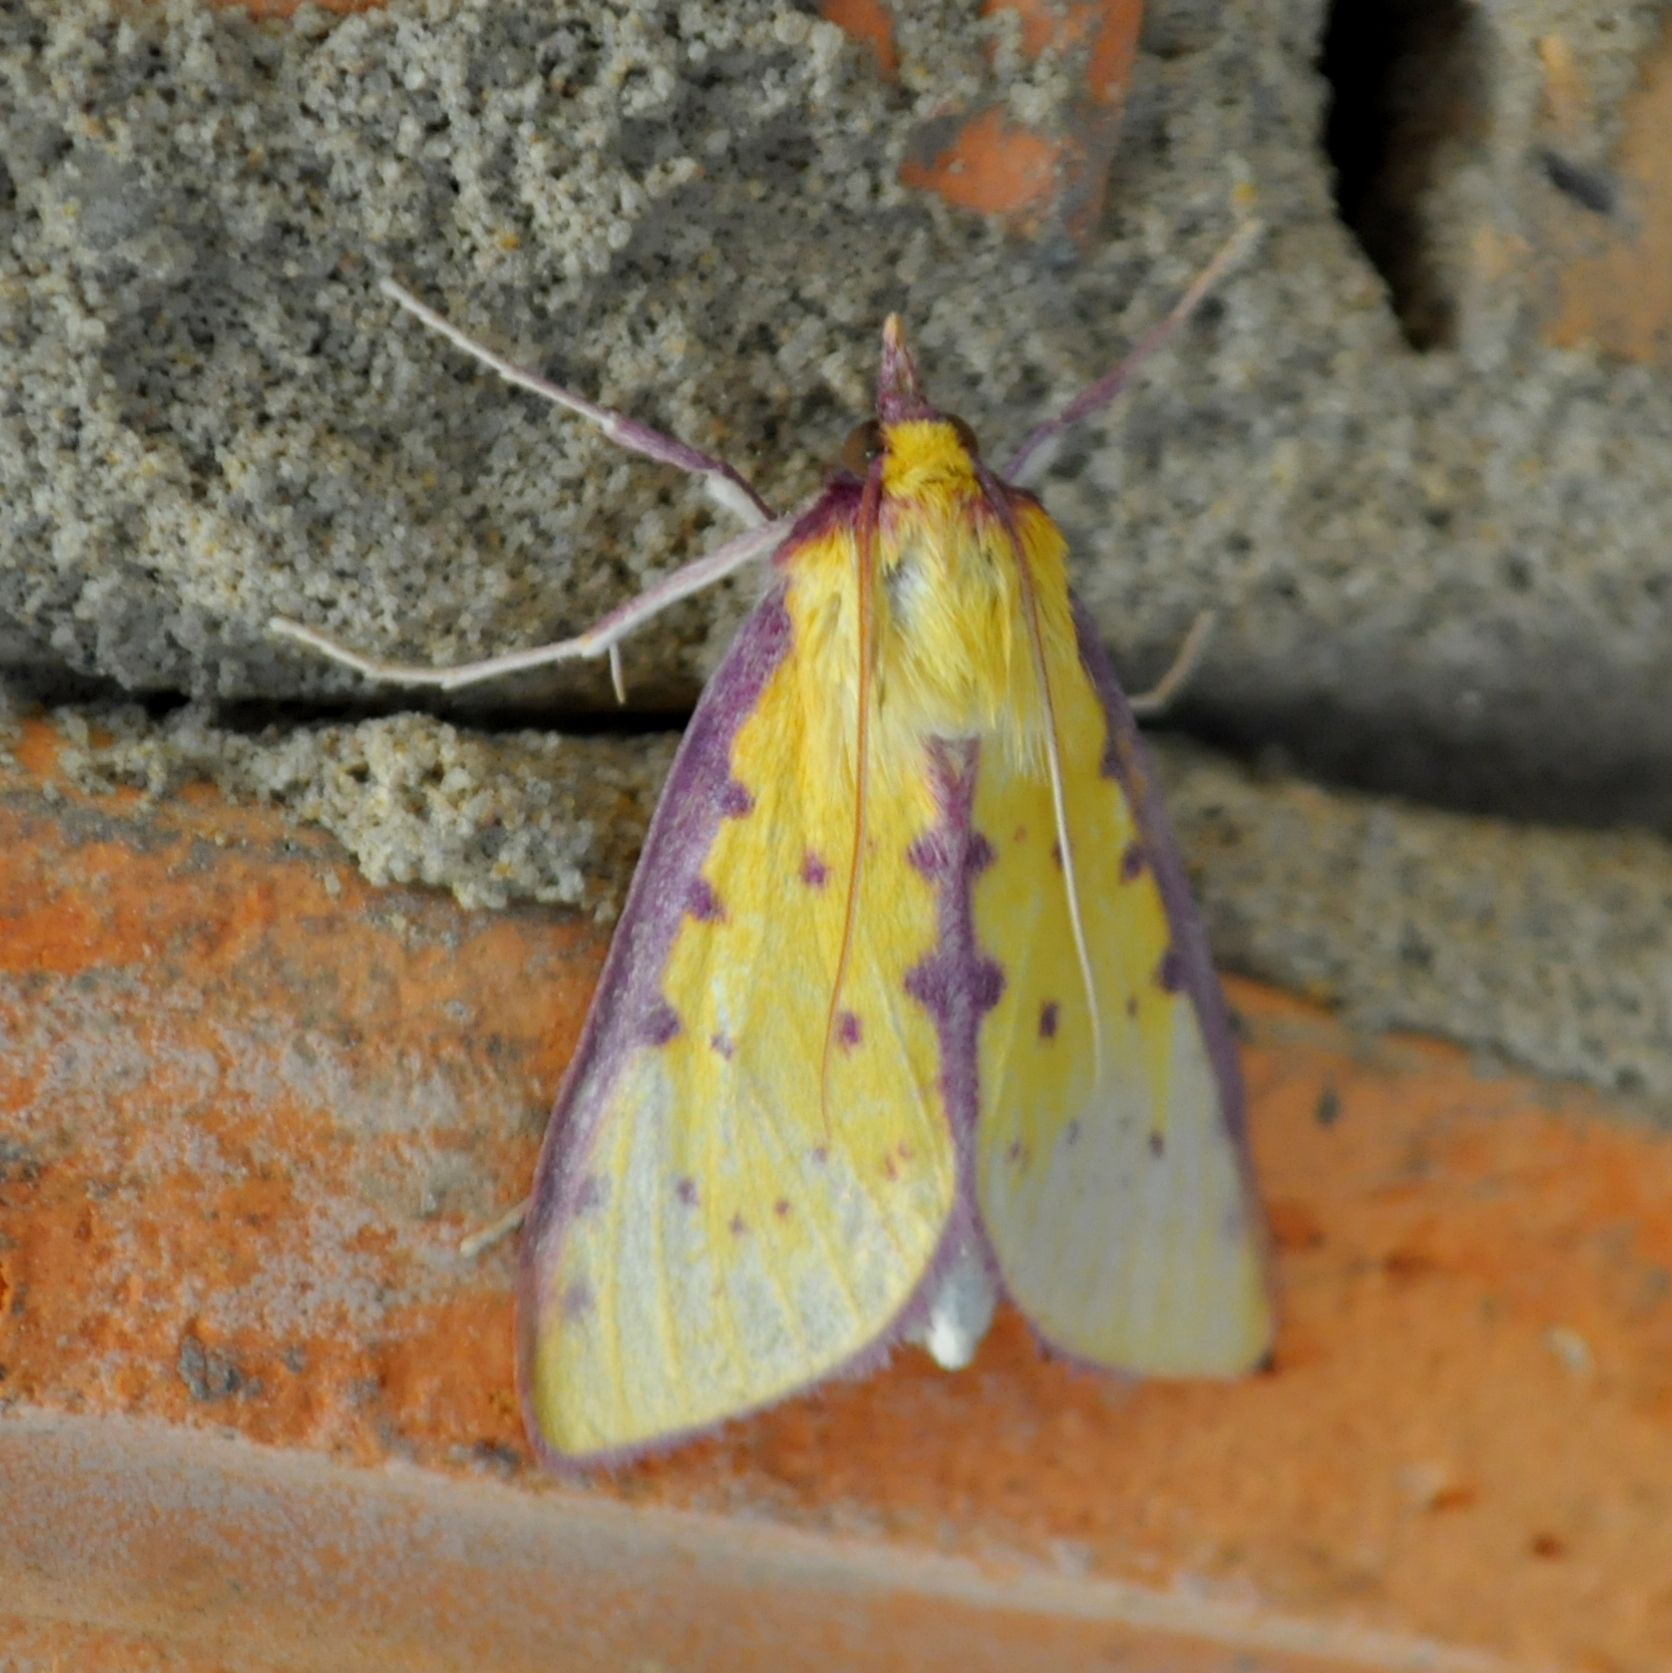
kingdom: Animalia
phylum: Arthropoda
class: Insecta
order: Lepidoptera
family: Crambidae
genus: Polygrammodes
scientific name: Polygrammodes sanguiguttalis
